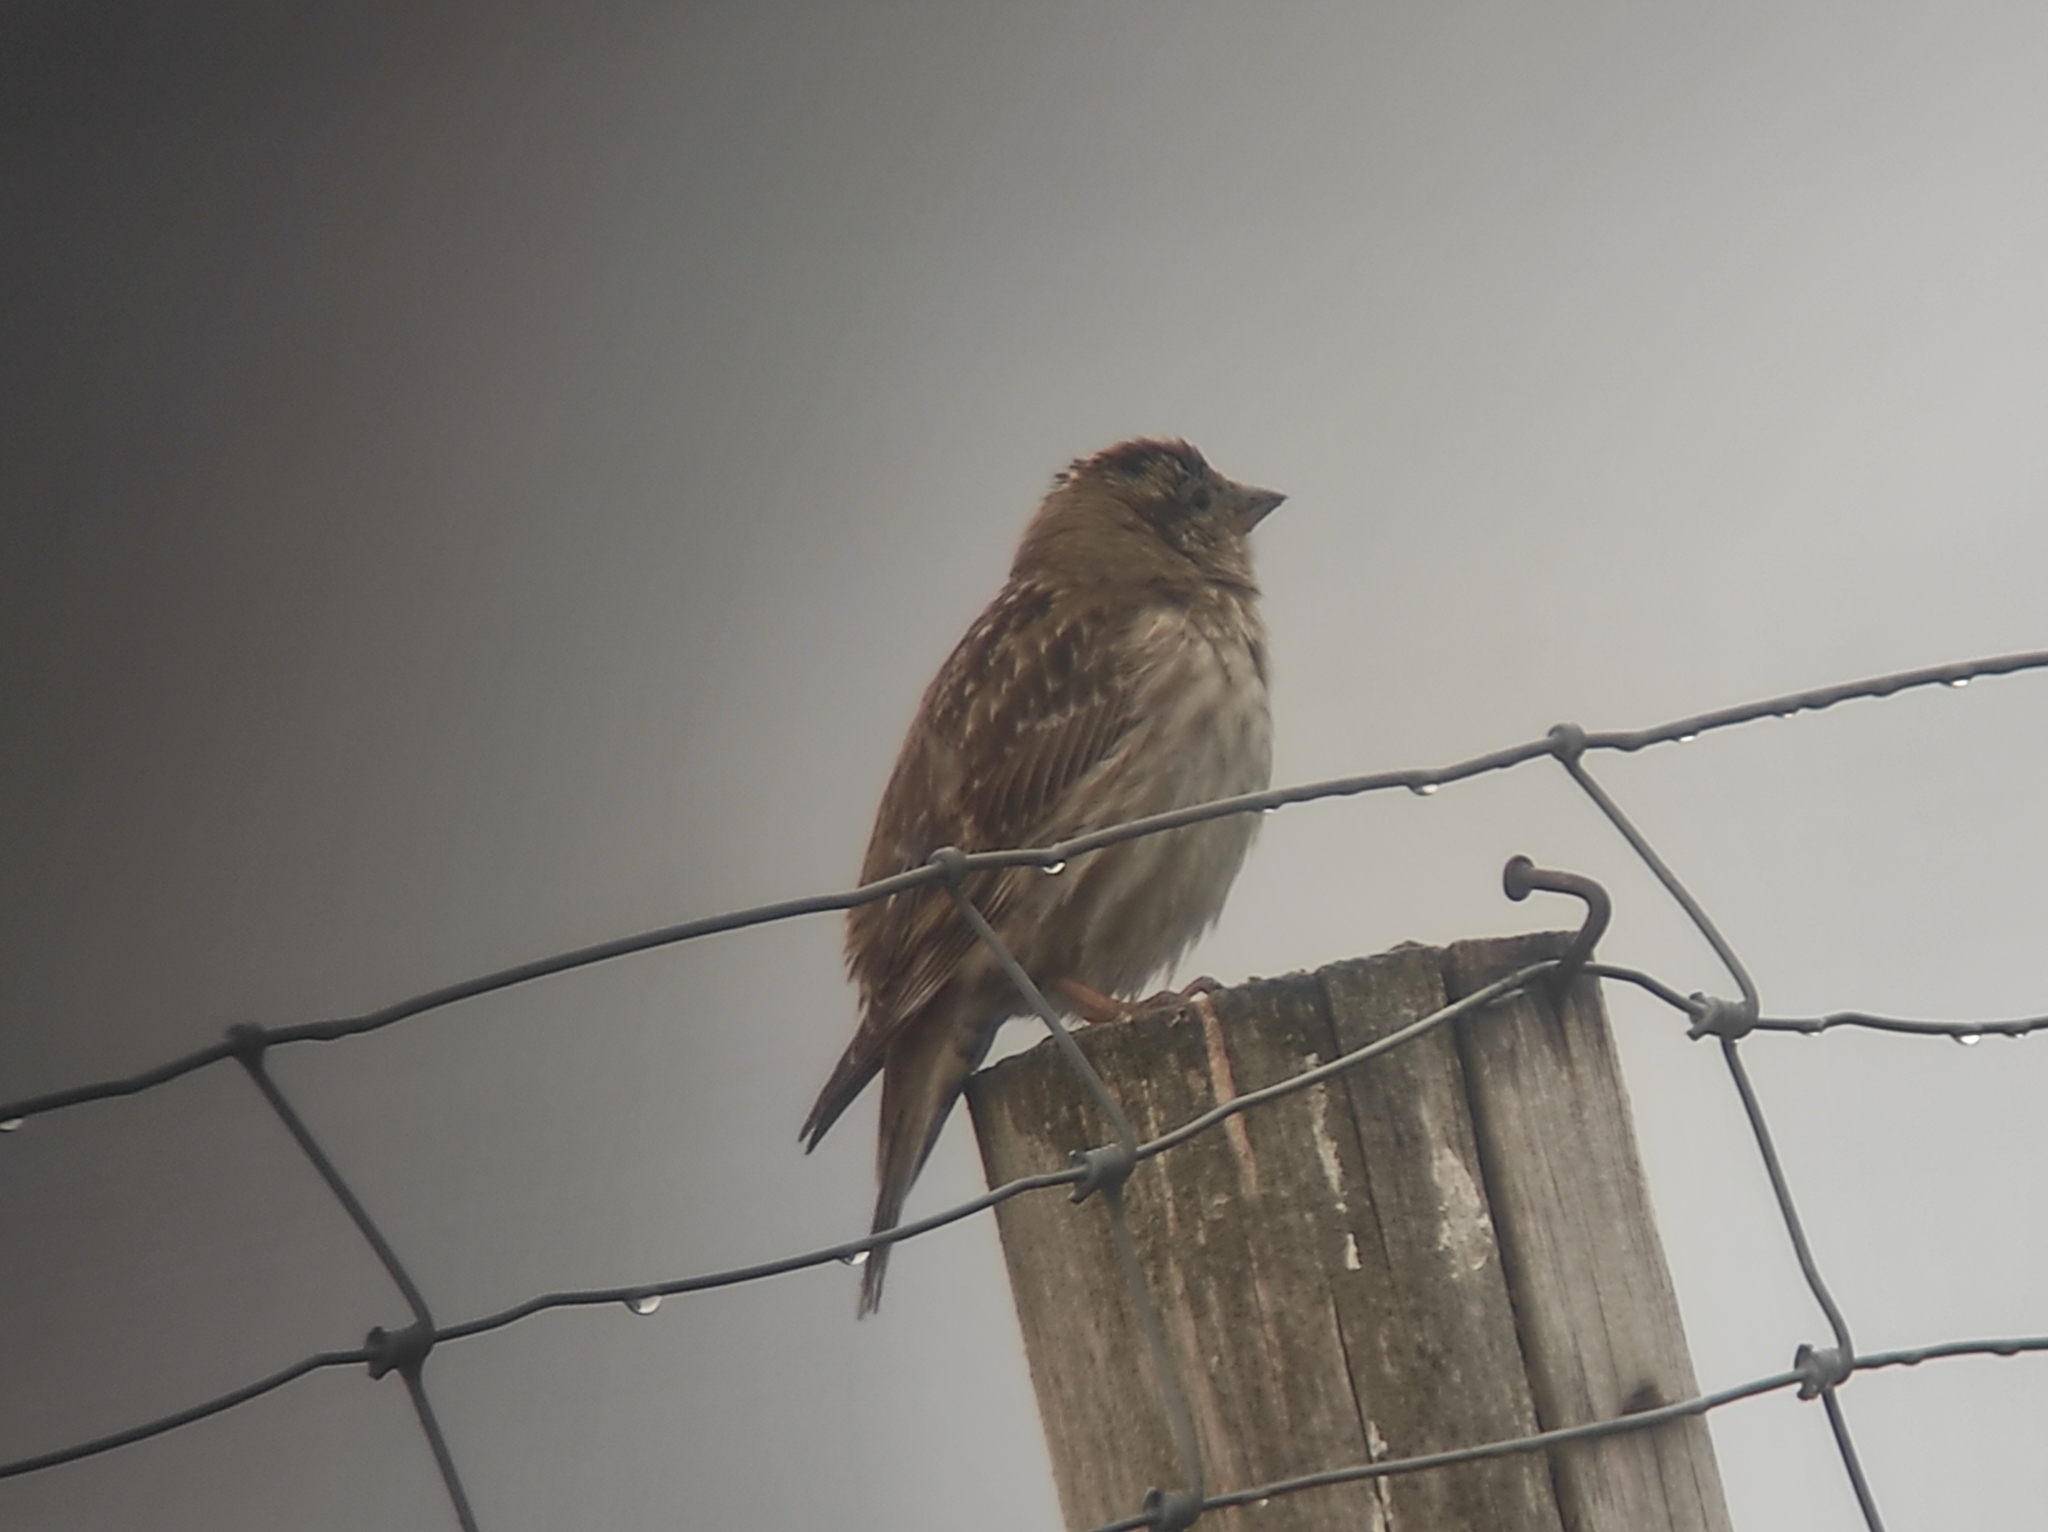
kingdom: Animalia
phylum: Chordata
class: Aves
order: Passeriformes
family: Passeridae
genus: Petronia
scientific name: Petronia petronia
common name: Rock sparrow
